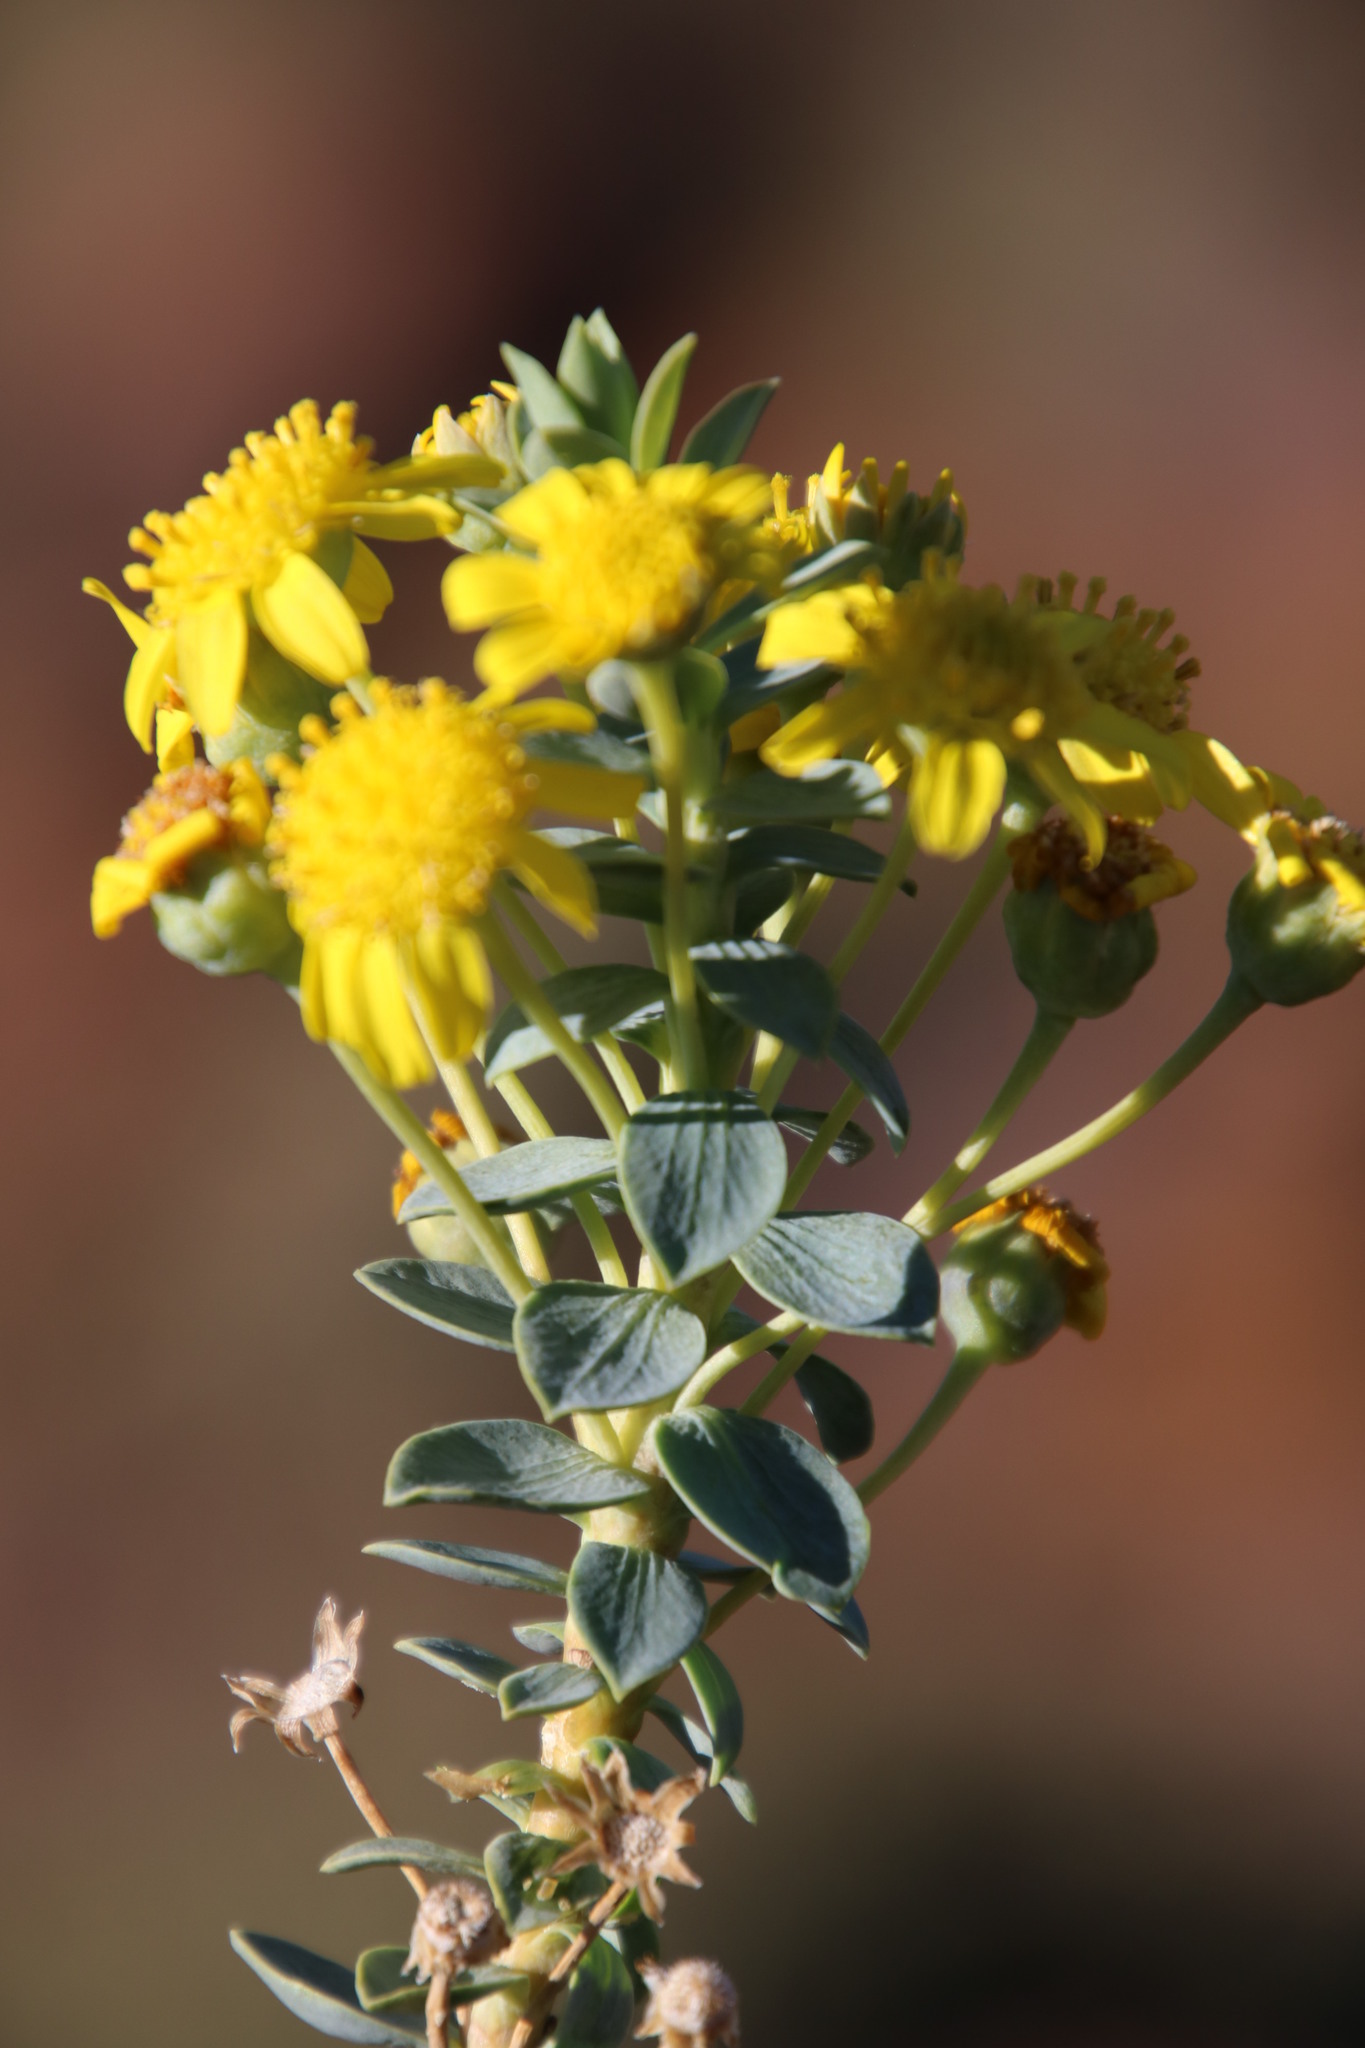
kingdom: Plantae
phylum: Tracheophyta
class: Magnoliopsida
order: Asterales
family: Asteraceae
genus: Euryops
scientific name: Euryops lateriflorus
